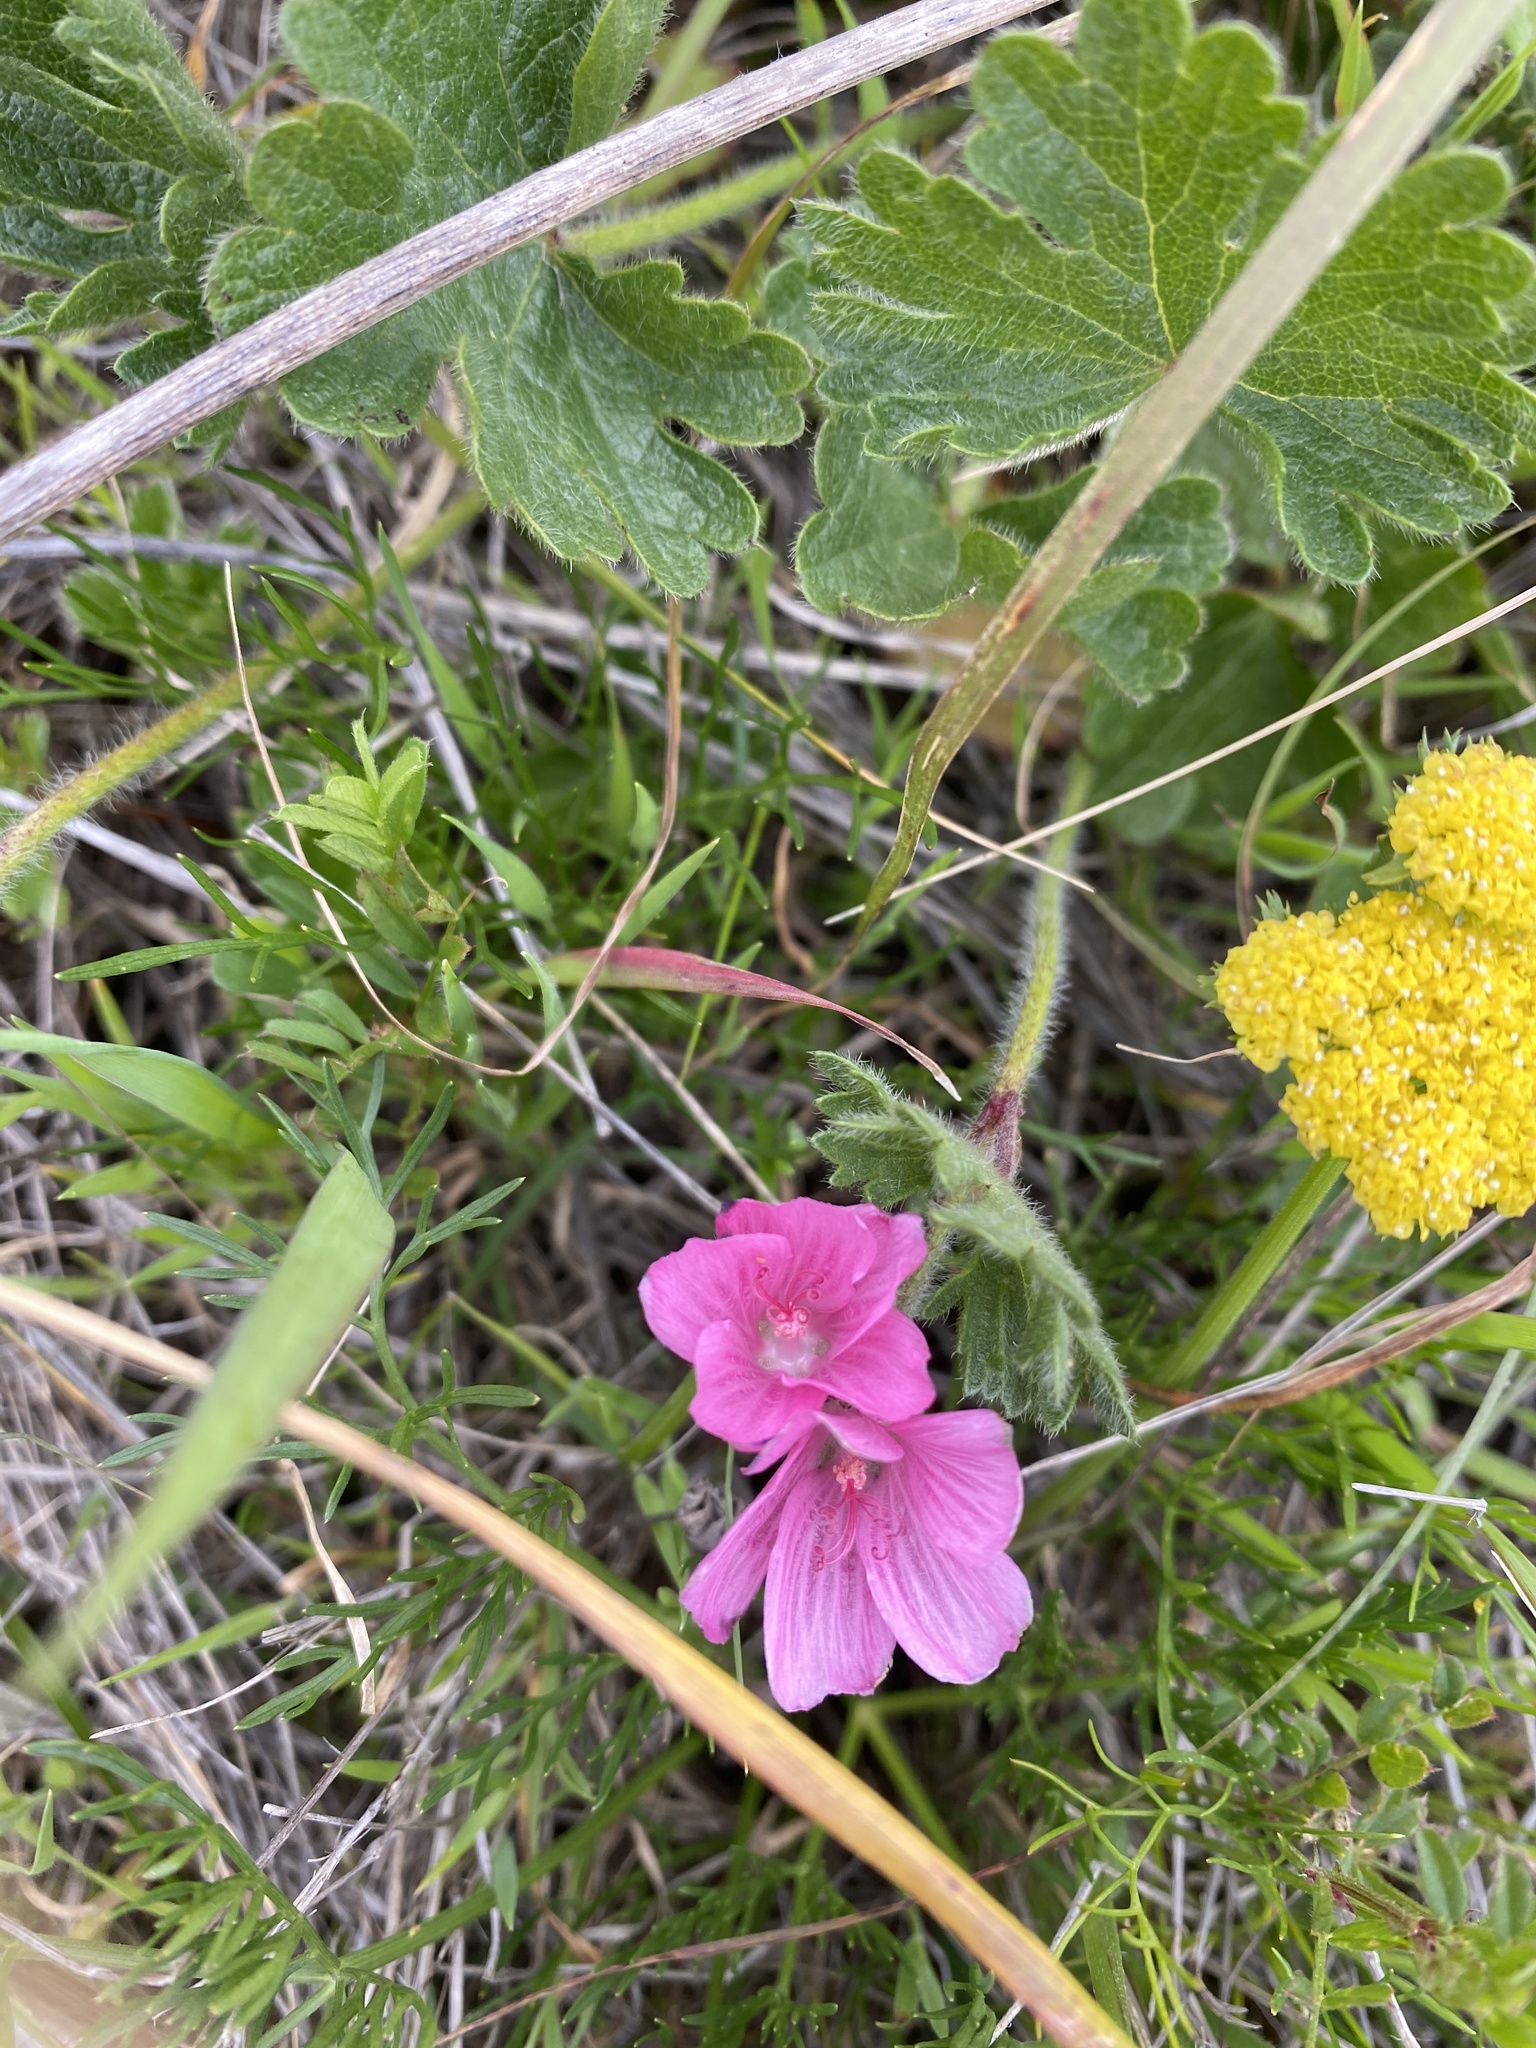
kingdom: Plantae
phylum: Tracheophyta
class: Magnoliopsida
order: Malvales
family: Malvaceae
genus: Sidalcea
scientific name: Sidalcea malviflora
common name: Greek mallow
